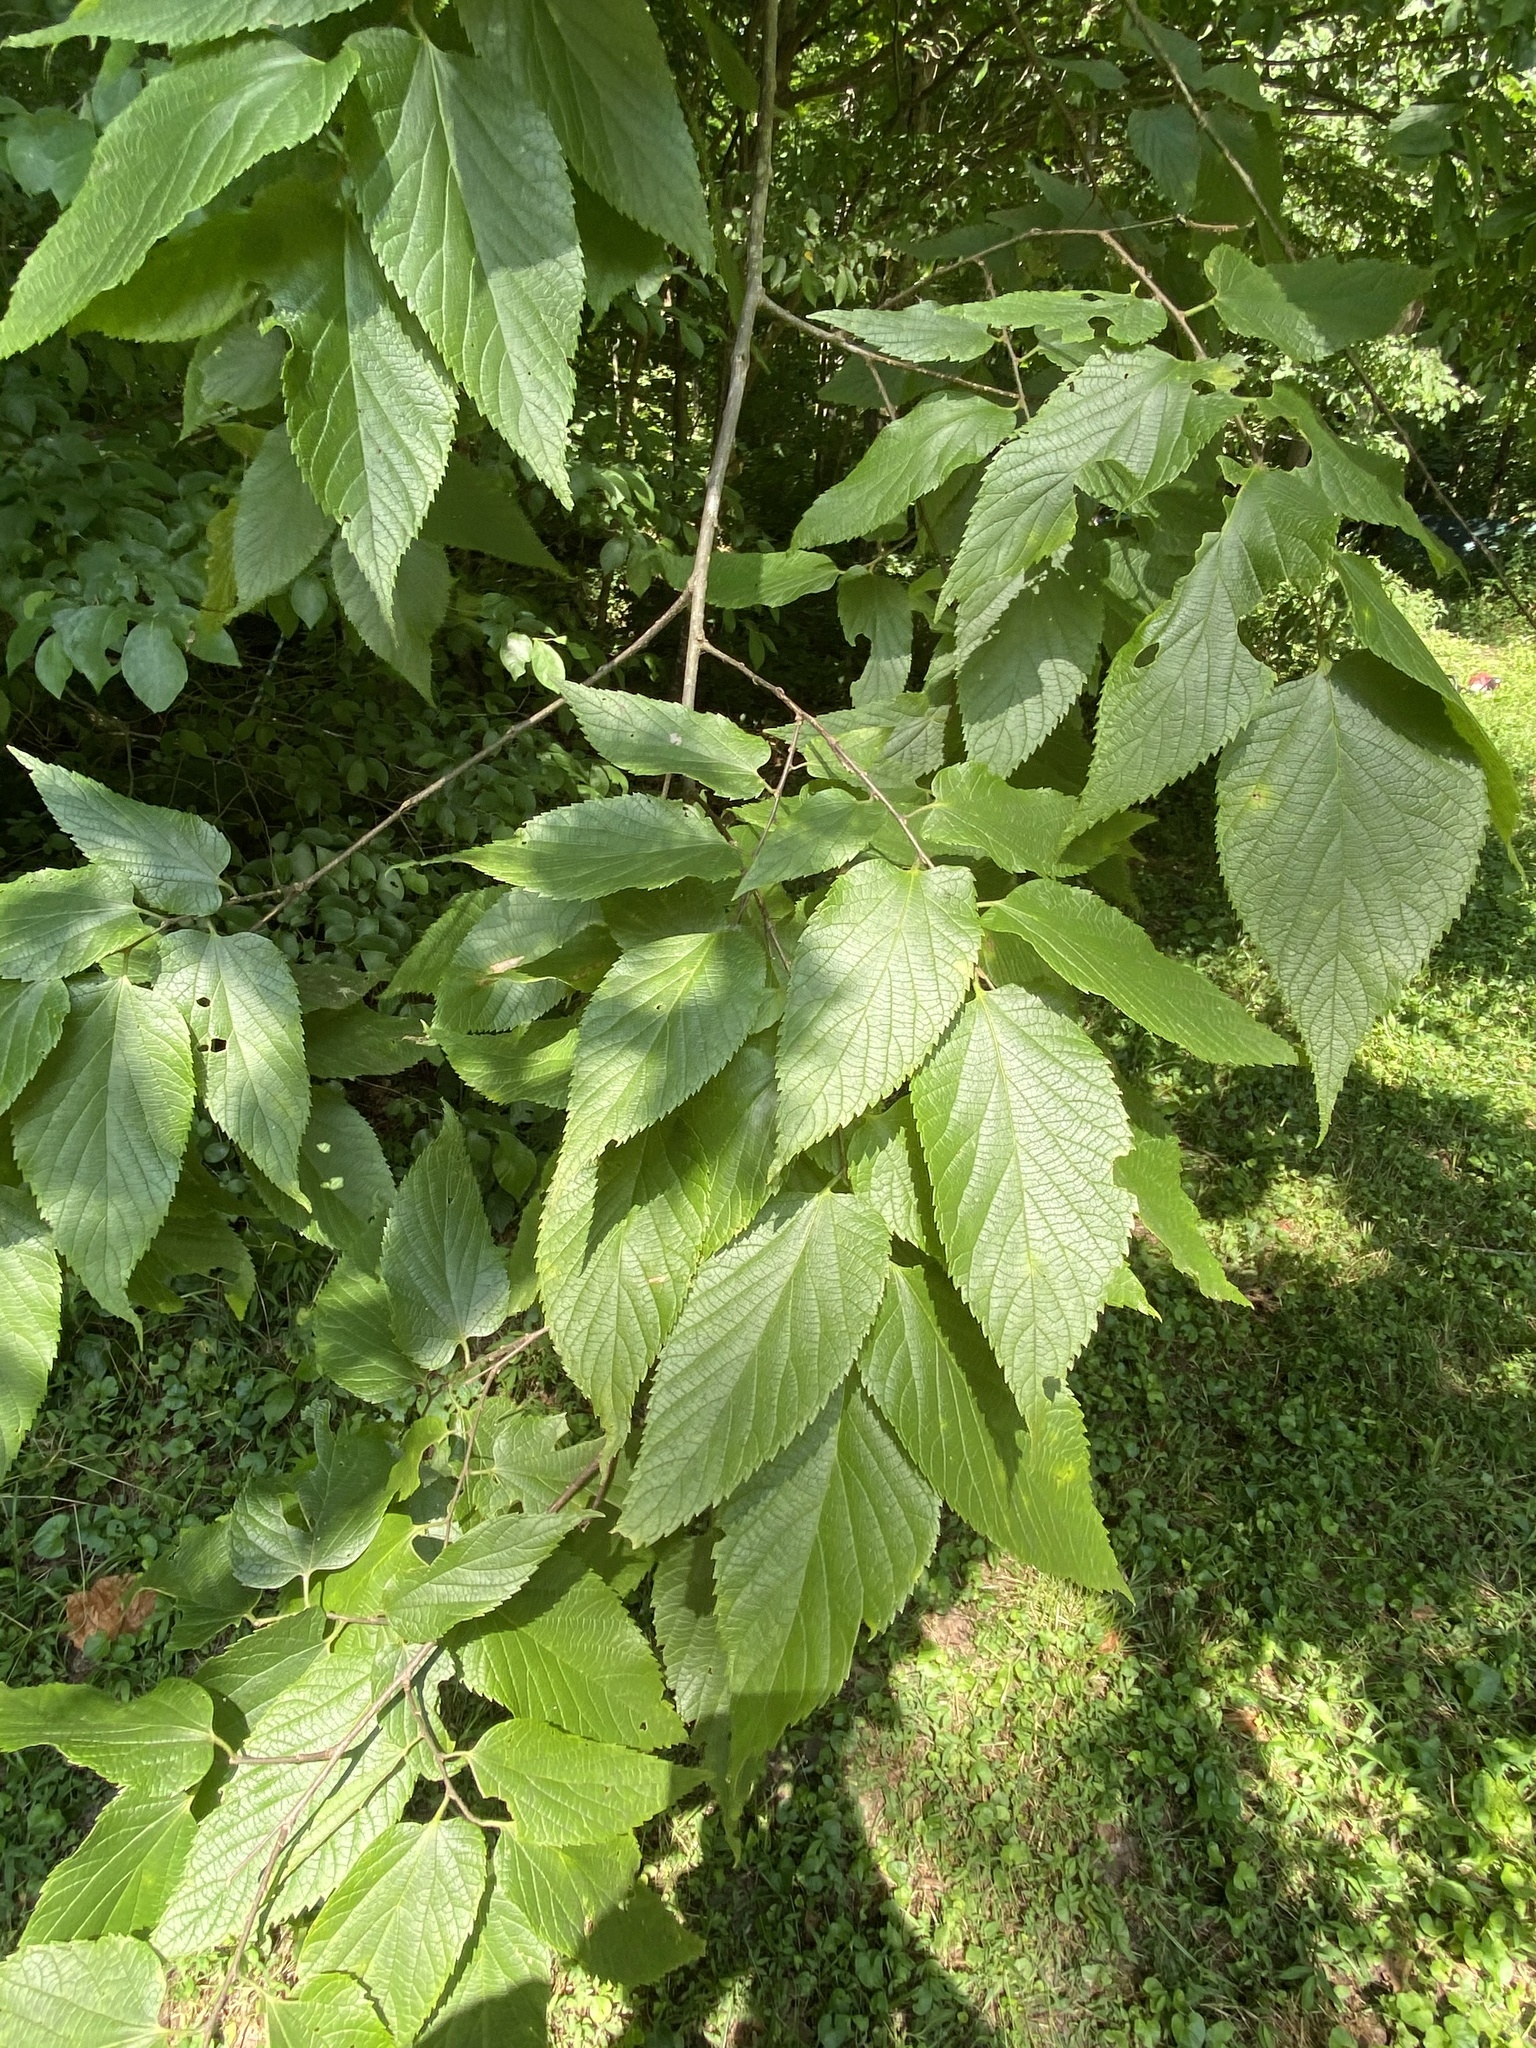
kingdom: Plantae
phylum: Tracheophyta
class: Magnoliopsida
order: Rosales
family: Cannabaceae
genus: Celtis
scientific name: Celtis occidentalis
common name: Common hackberry
